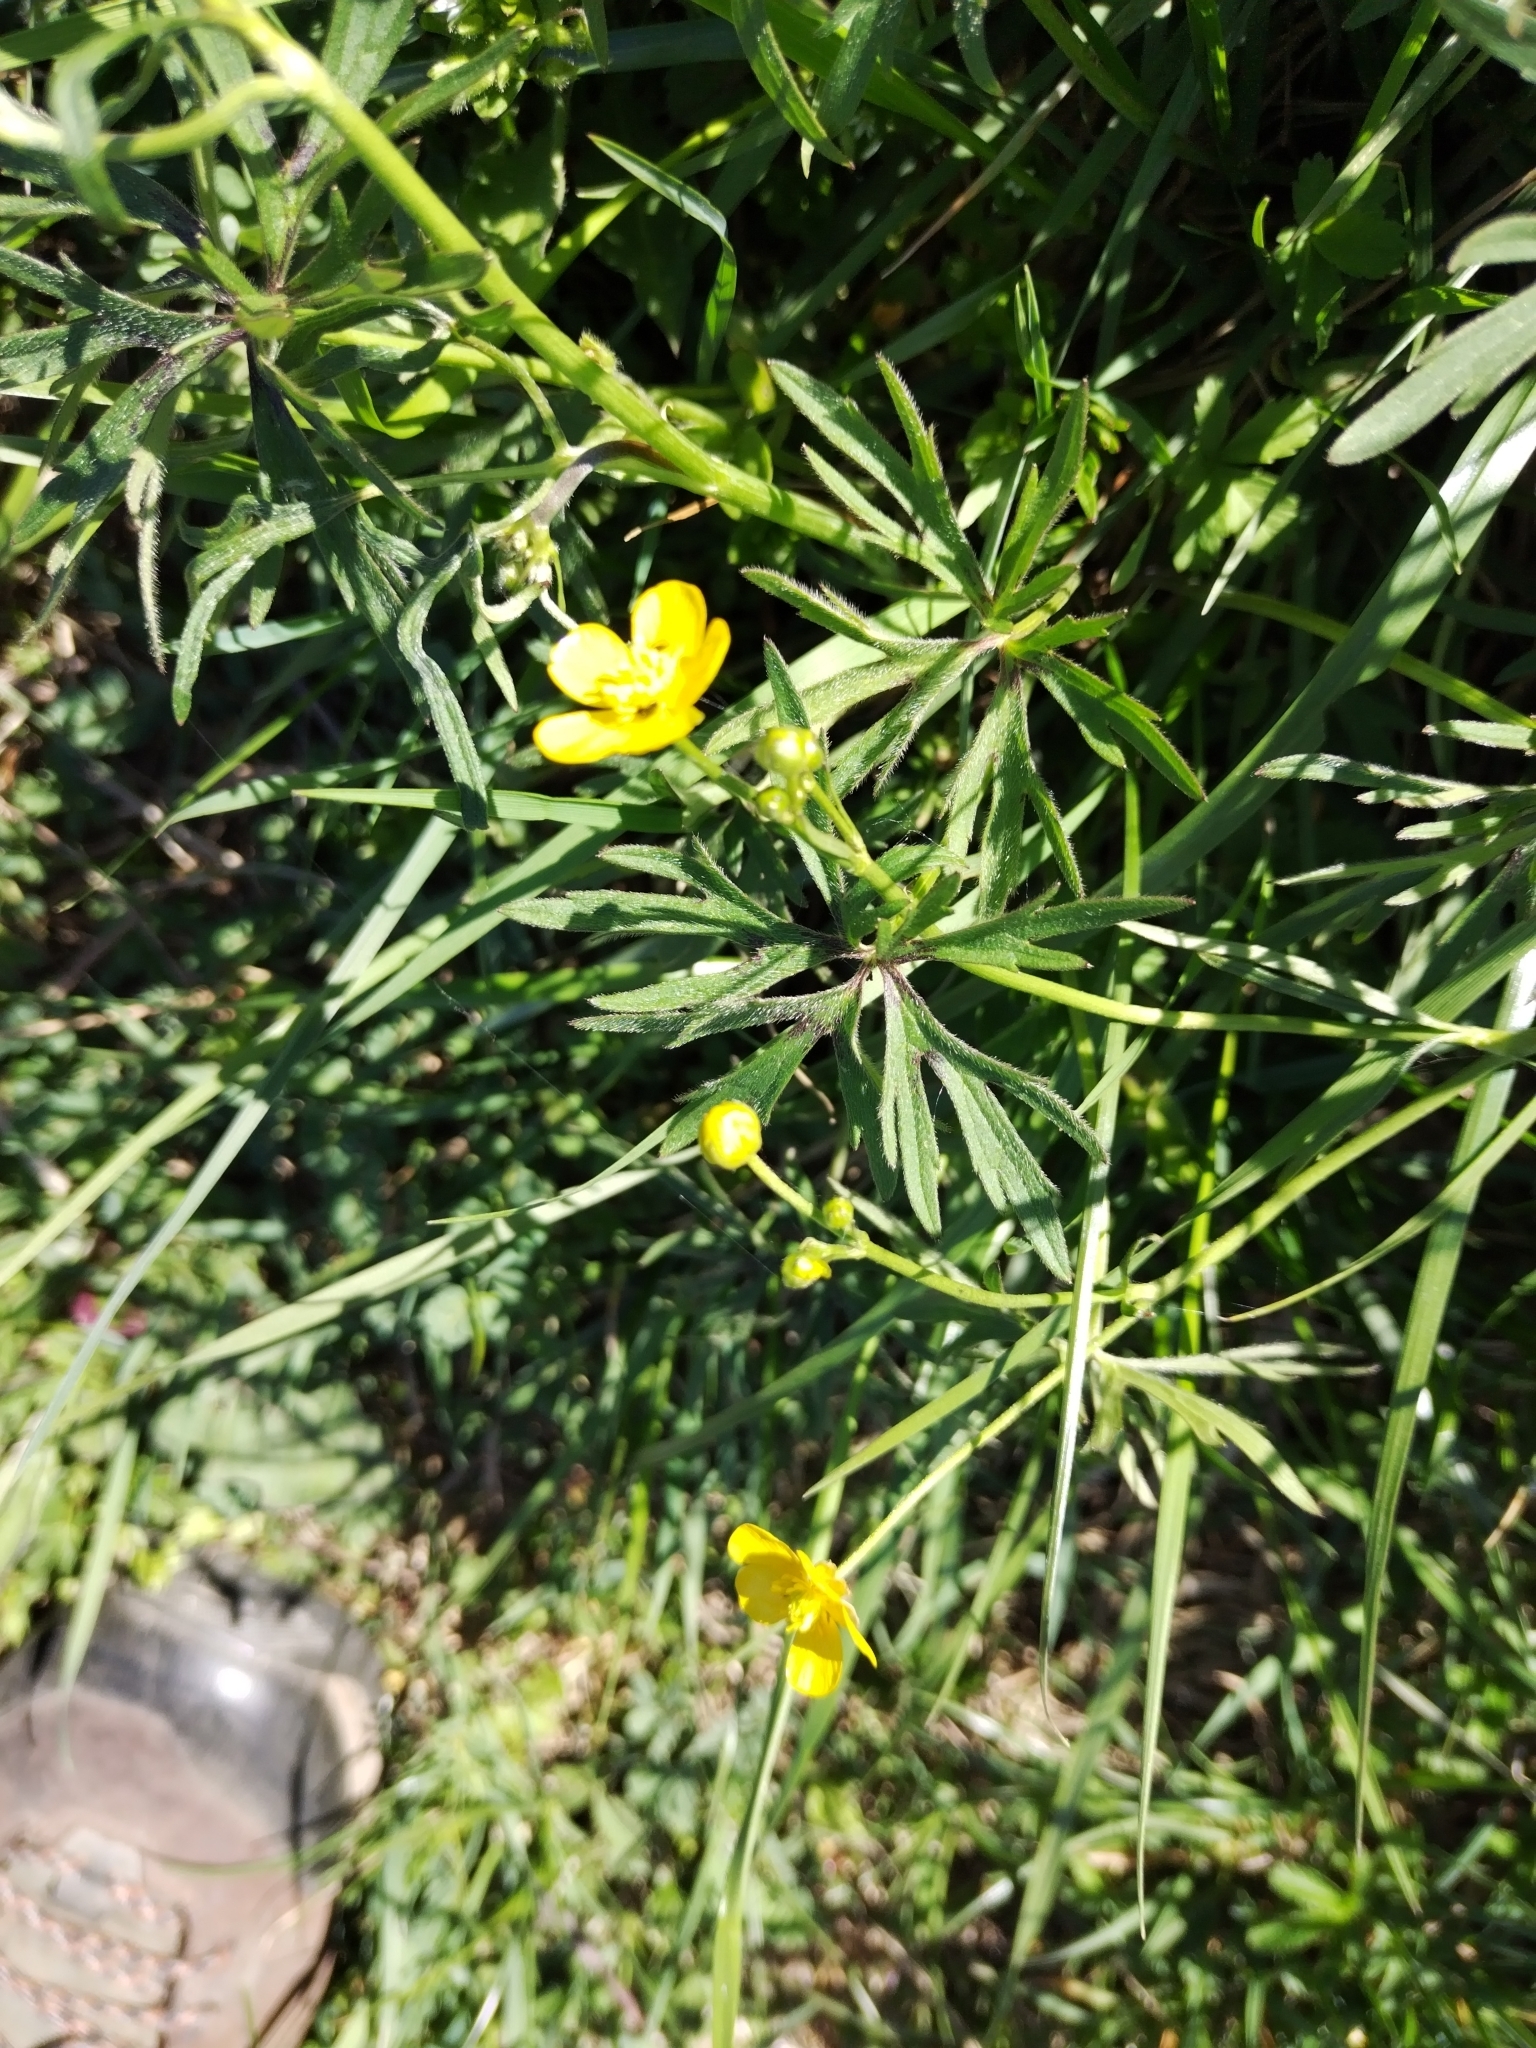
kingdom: Plantae
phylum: Tracheophyta
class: Magnoliopsida
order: Ranunculales
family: Ranunculaceae
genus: Ranunculus
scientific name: Ranunculus acris
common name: Meadow buttercup
